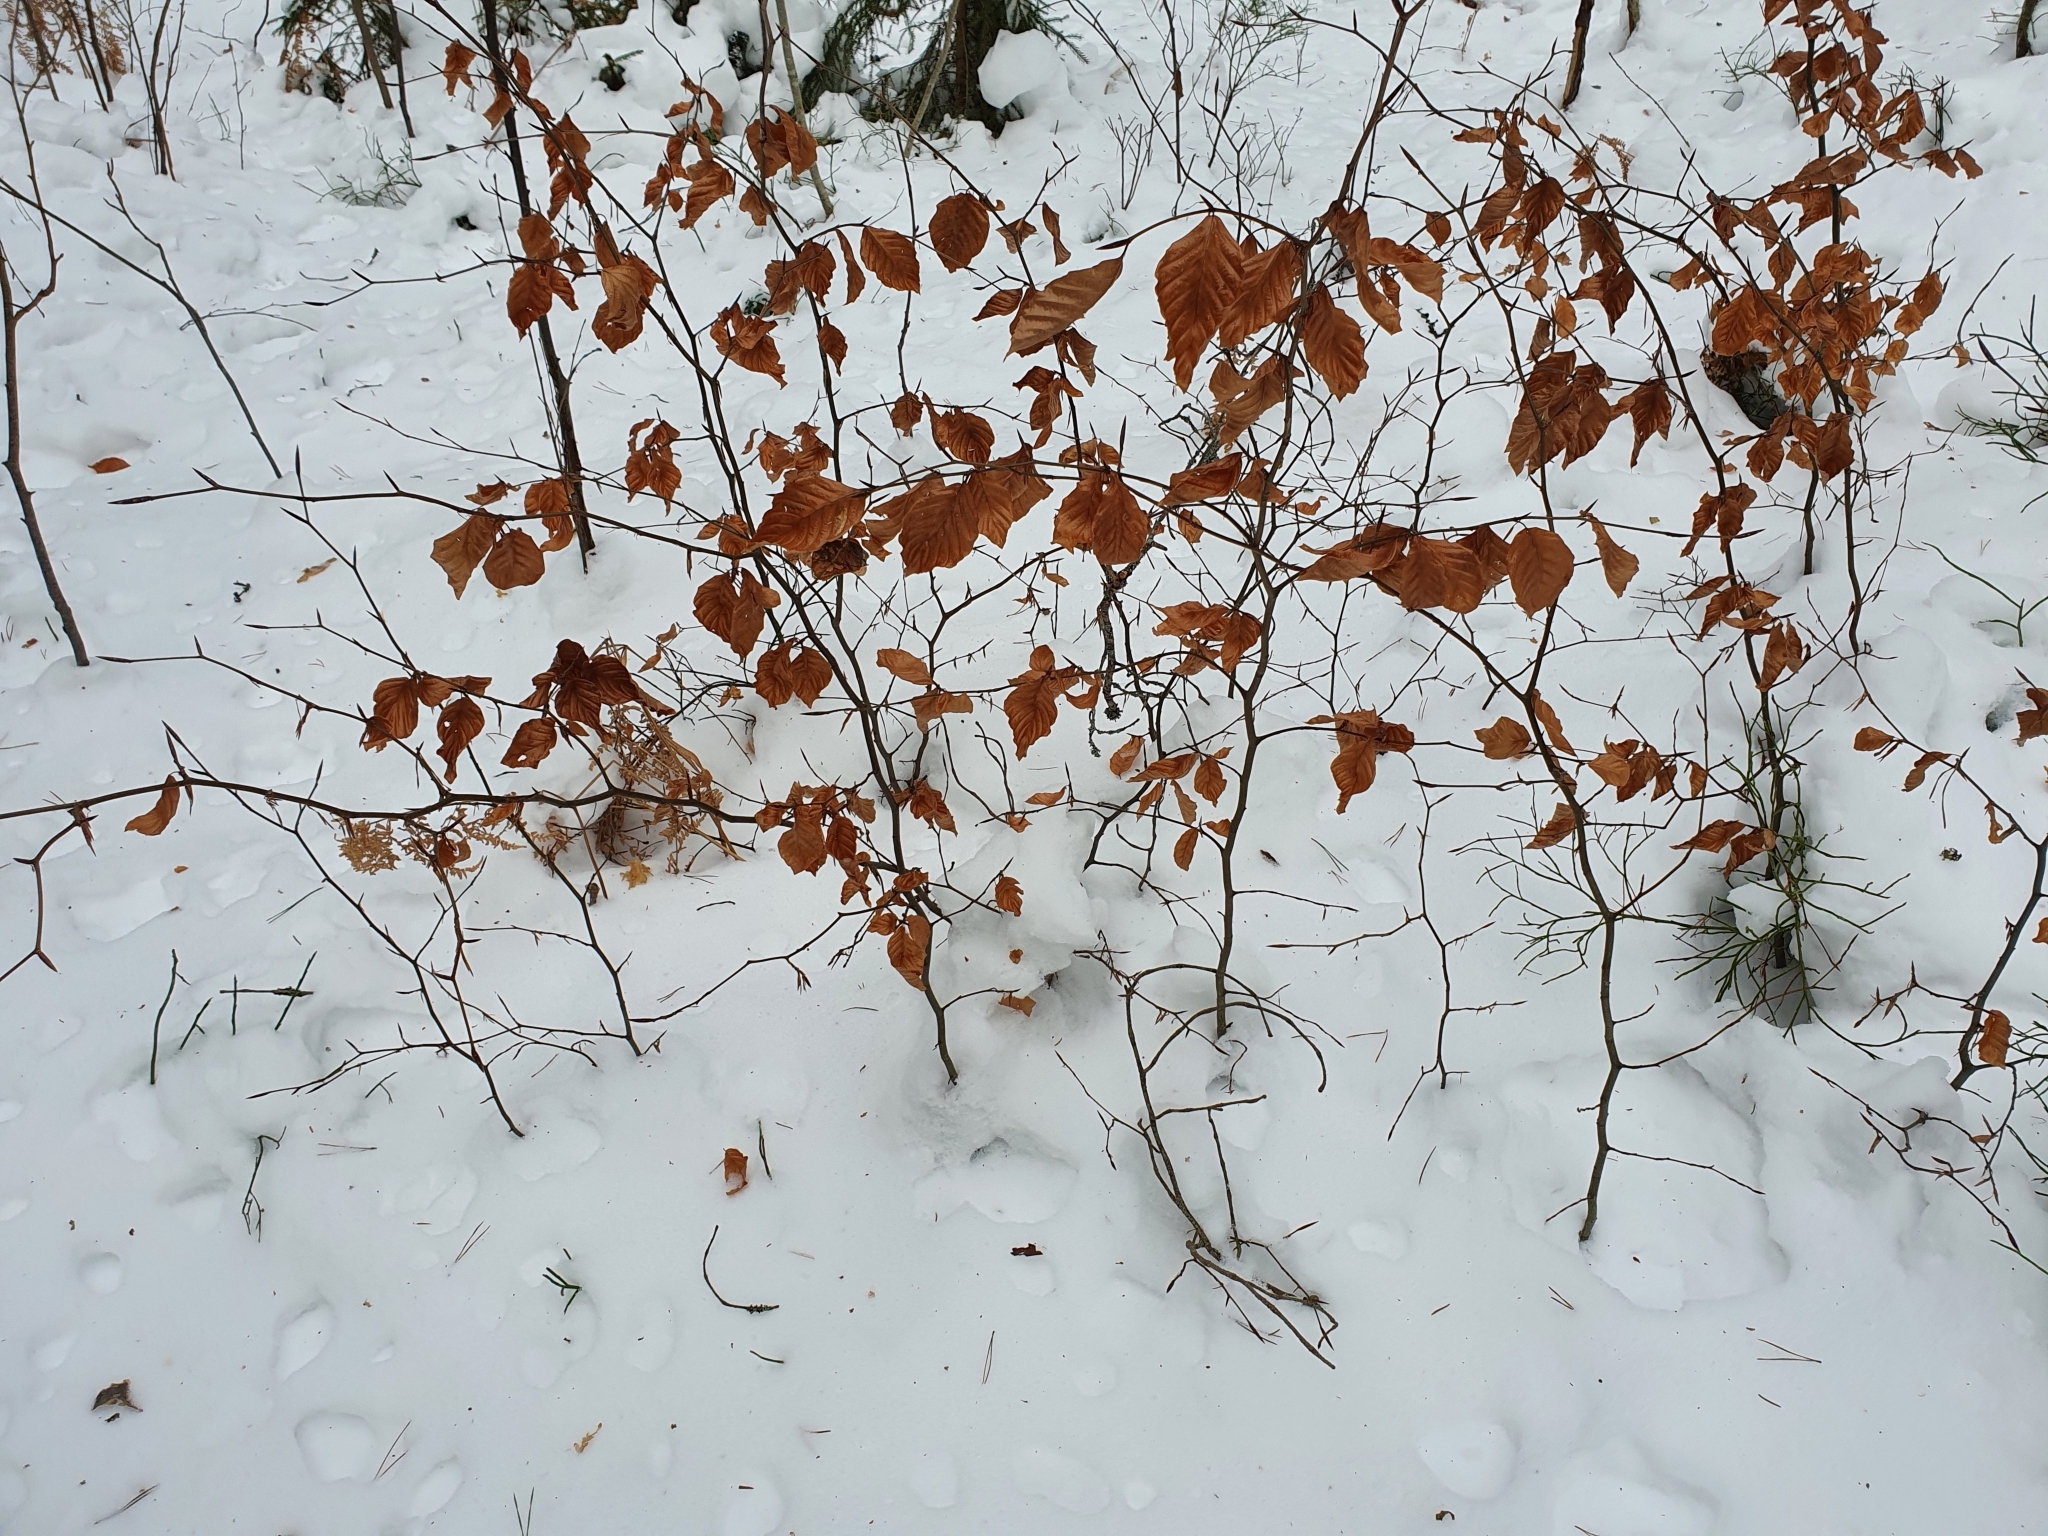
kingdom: Plantae
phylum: Tracheophyta
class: Magnoliopsida
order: Fagales
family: Fagaceae
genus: Fagus
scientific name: Fagus sylvatica
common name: Beech
